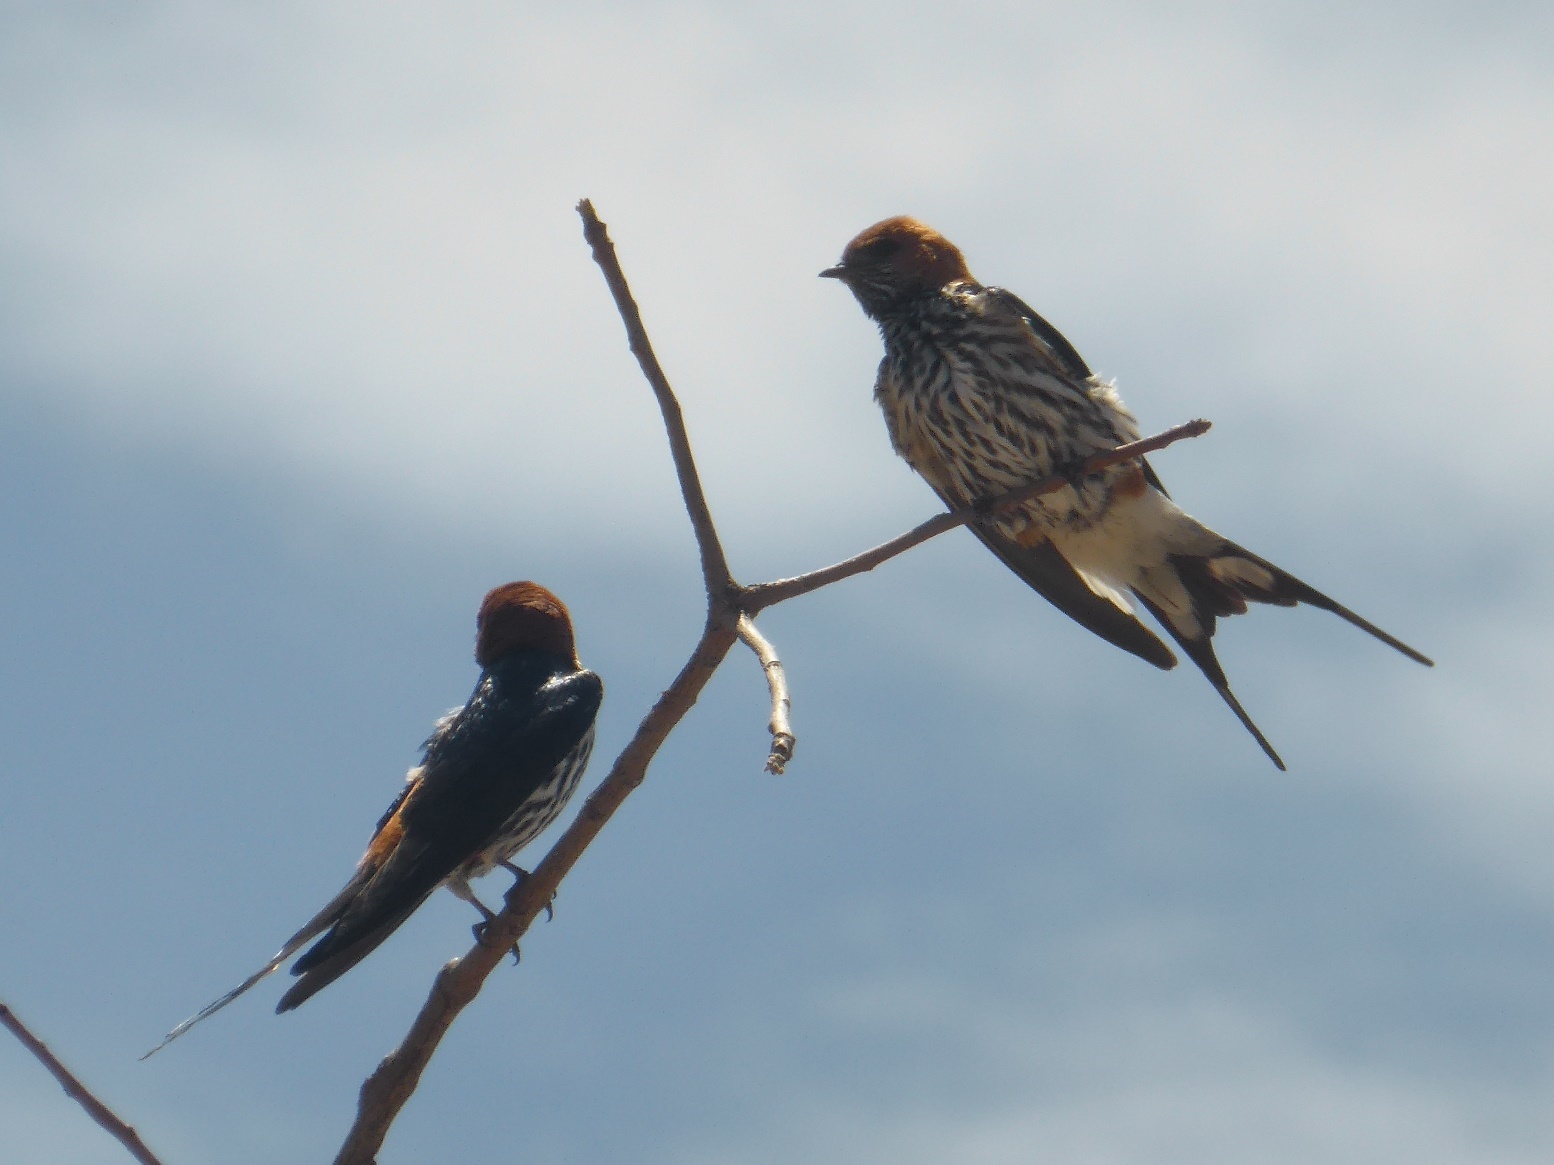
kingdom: Animalia
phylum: Chordata
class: Aves
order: Passeriformes
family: Hirundinidae
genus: Cecropis
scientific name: Cecropis abyssinica
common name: Lesser striped-swallow
